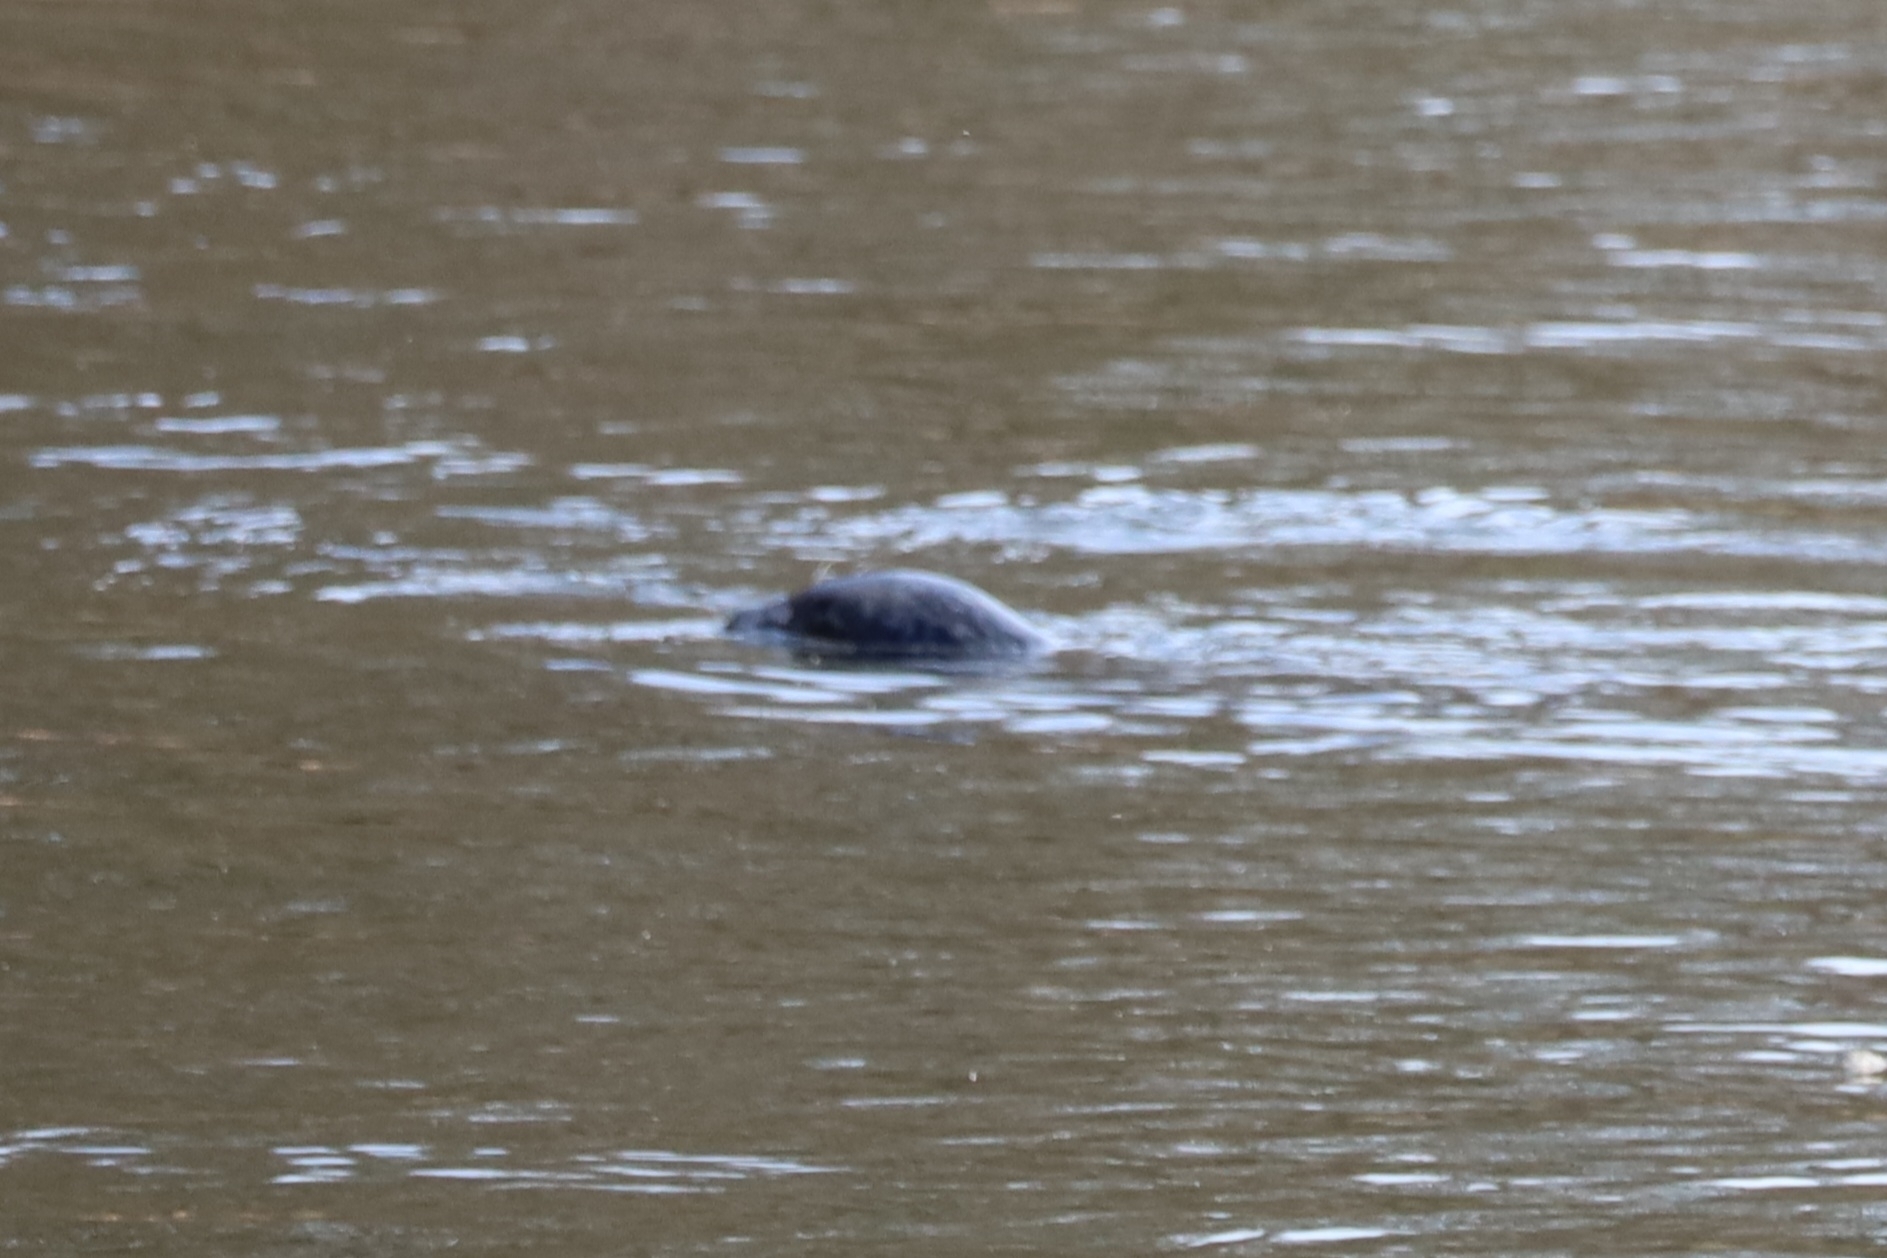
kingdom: Animalia
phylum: Chordata
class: Mammalia
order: Carnivora
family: Phocidae
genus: Phoca
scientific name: Phoca vitulina
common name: Harbor seal
